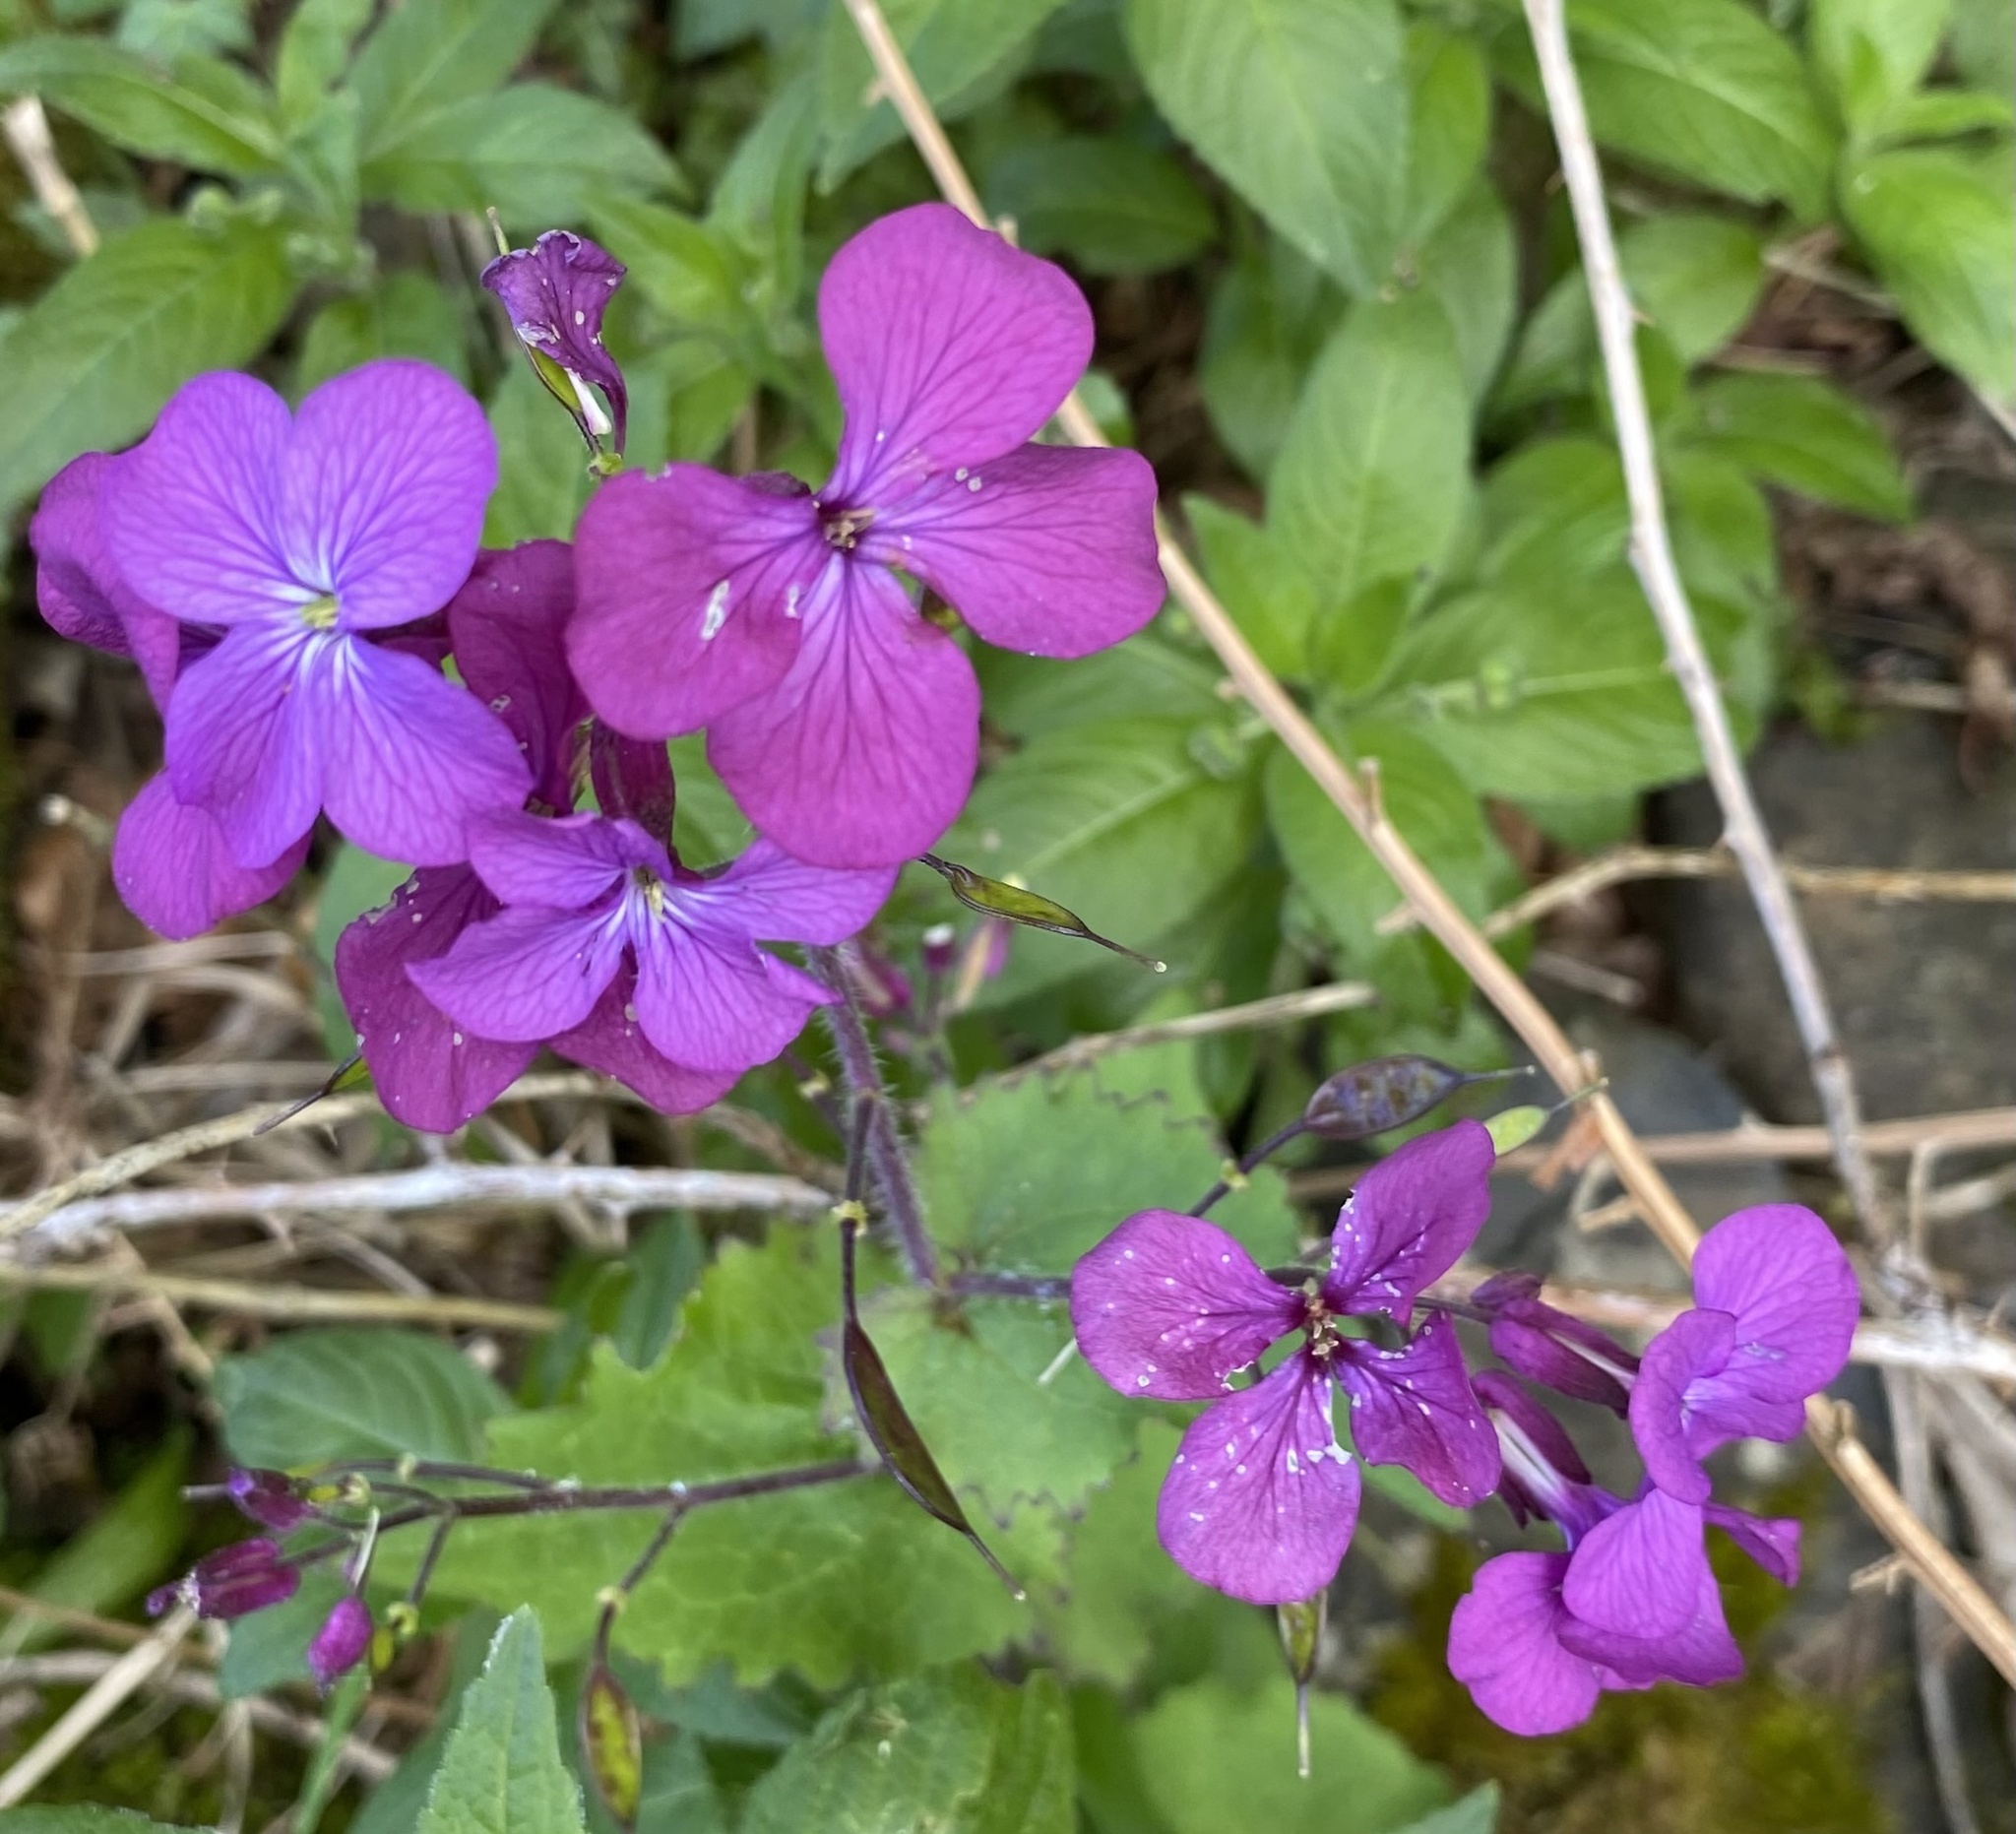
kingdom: Plantae
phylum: Tracheophyta
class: Magnoliopsida
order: Brassicales
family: Brassicaceae
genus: Lunaria
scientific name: Lunaria annua
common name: Honesty
